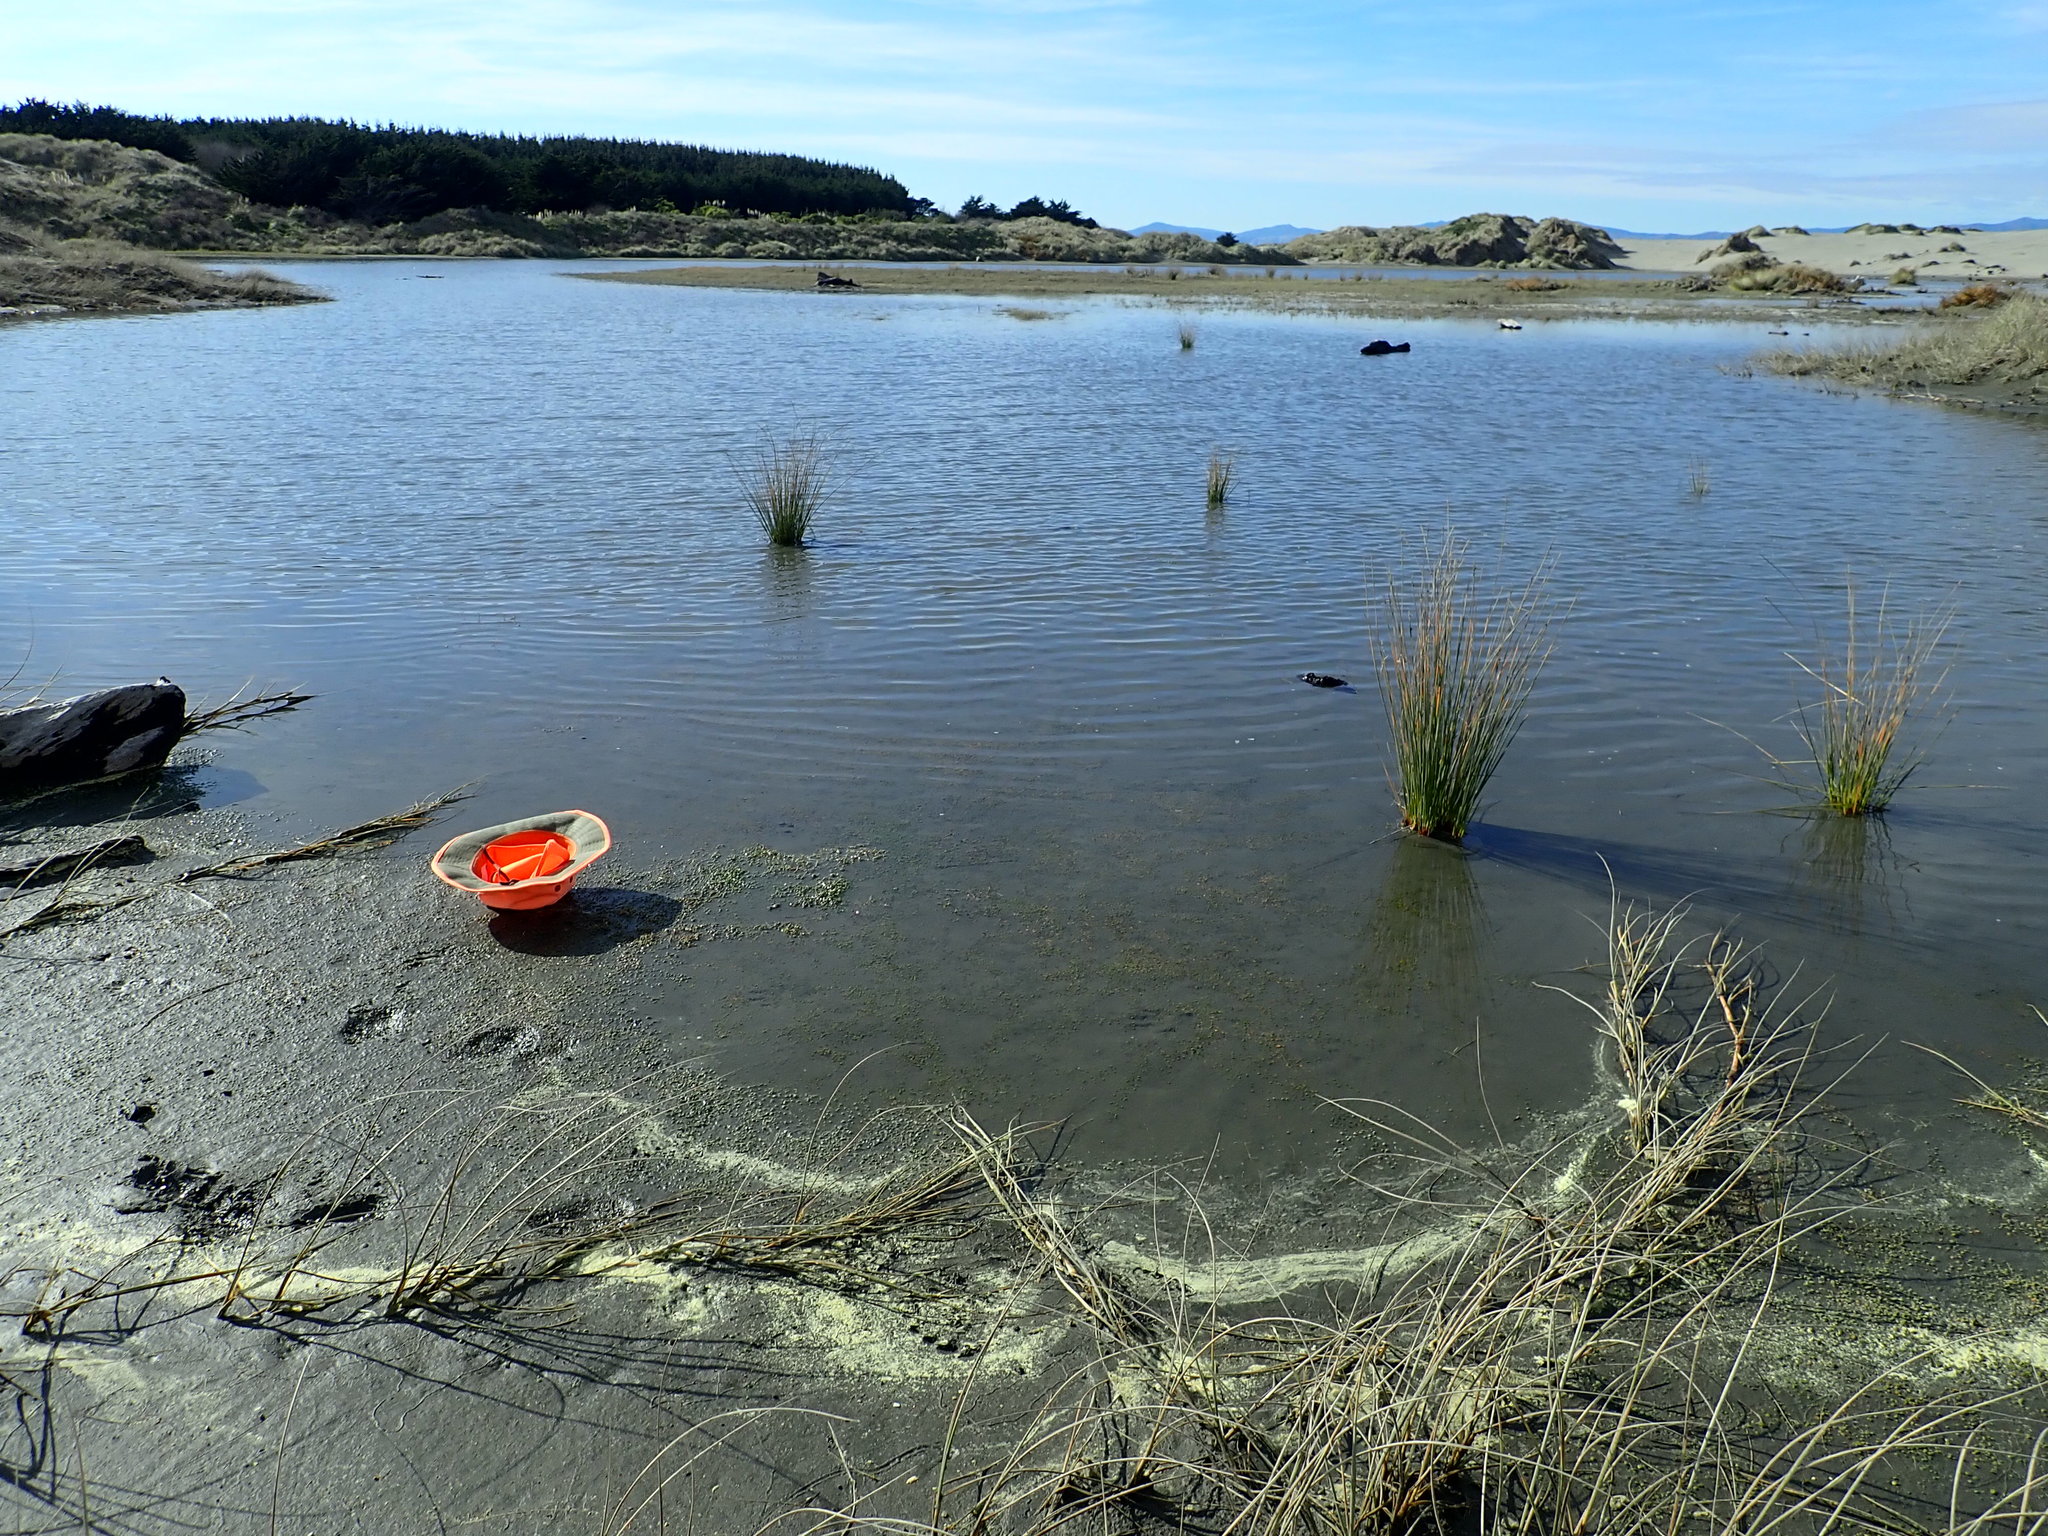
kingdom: Plantae
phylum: Tracheophyta
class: Pinopsida
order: Pinales
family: Pinaceae
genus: Pinus
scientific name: Pinus radiata
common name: Monterey pine
